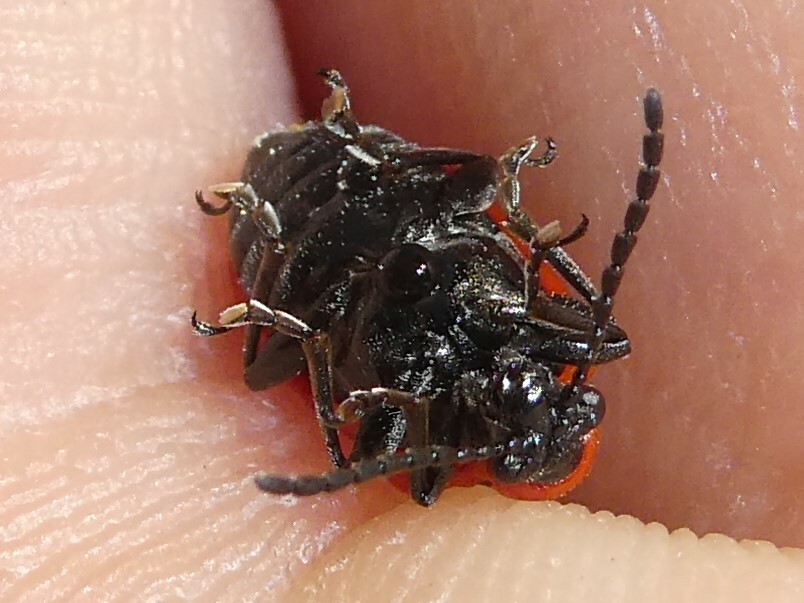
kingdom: Animalia
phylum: Arthropoda
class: Insecta
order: Coleoptera
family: Chrysomelidae
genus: Lilioceris
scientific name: Lilioceris lilii
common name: Lily beetle
